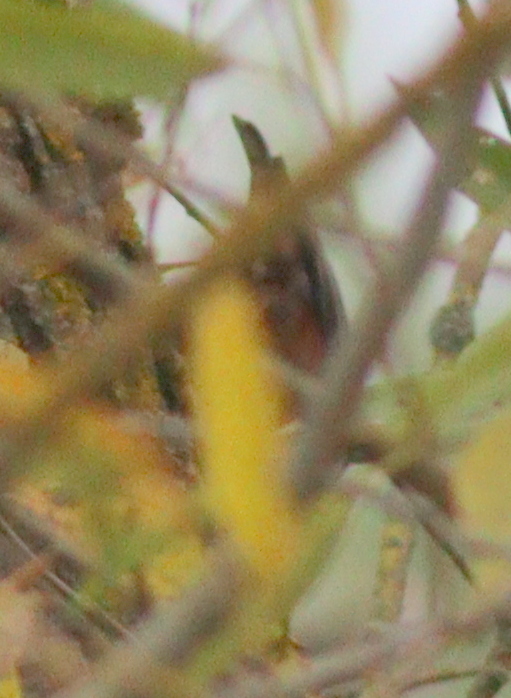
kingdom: Animalia
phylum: Chordata
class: Aves
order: Passeriformes
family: Sittidae
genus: Sitta
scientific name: Sitta europaea
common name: Eurasian nuthatch
